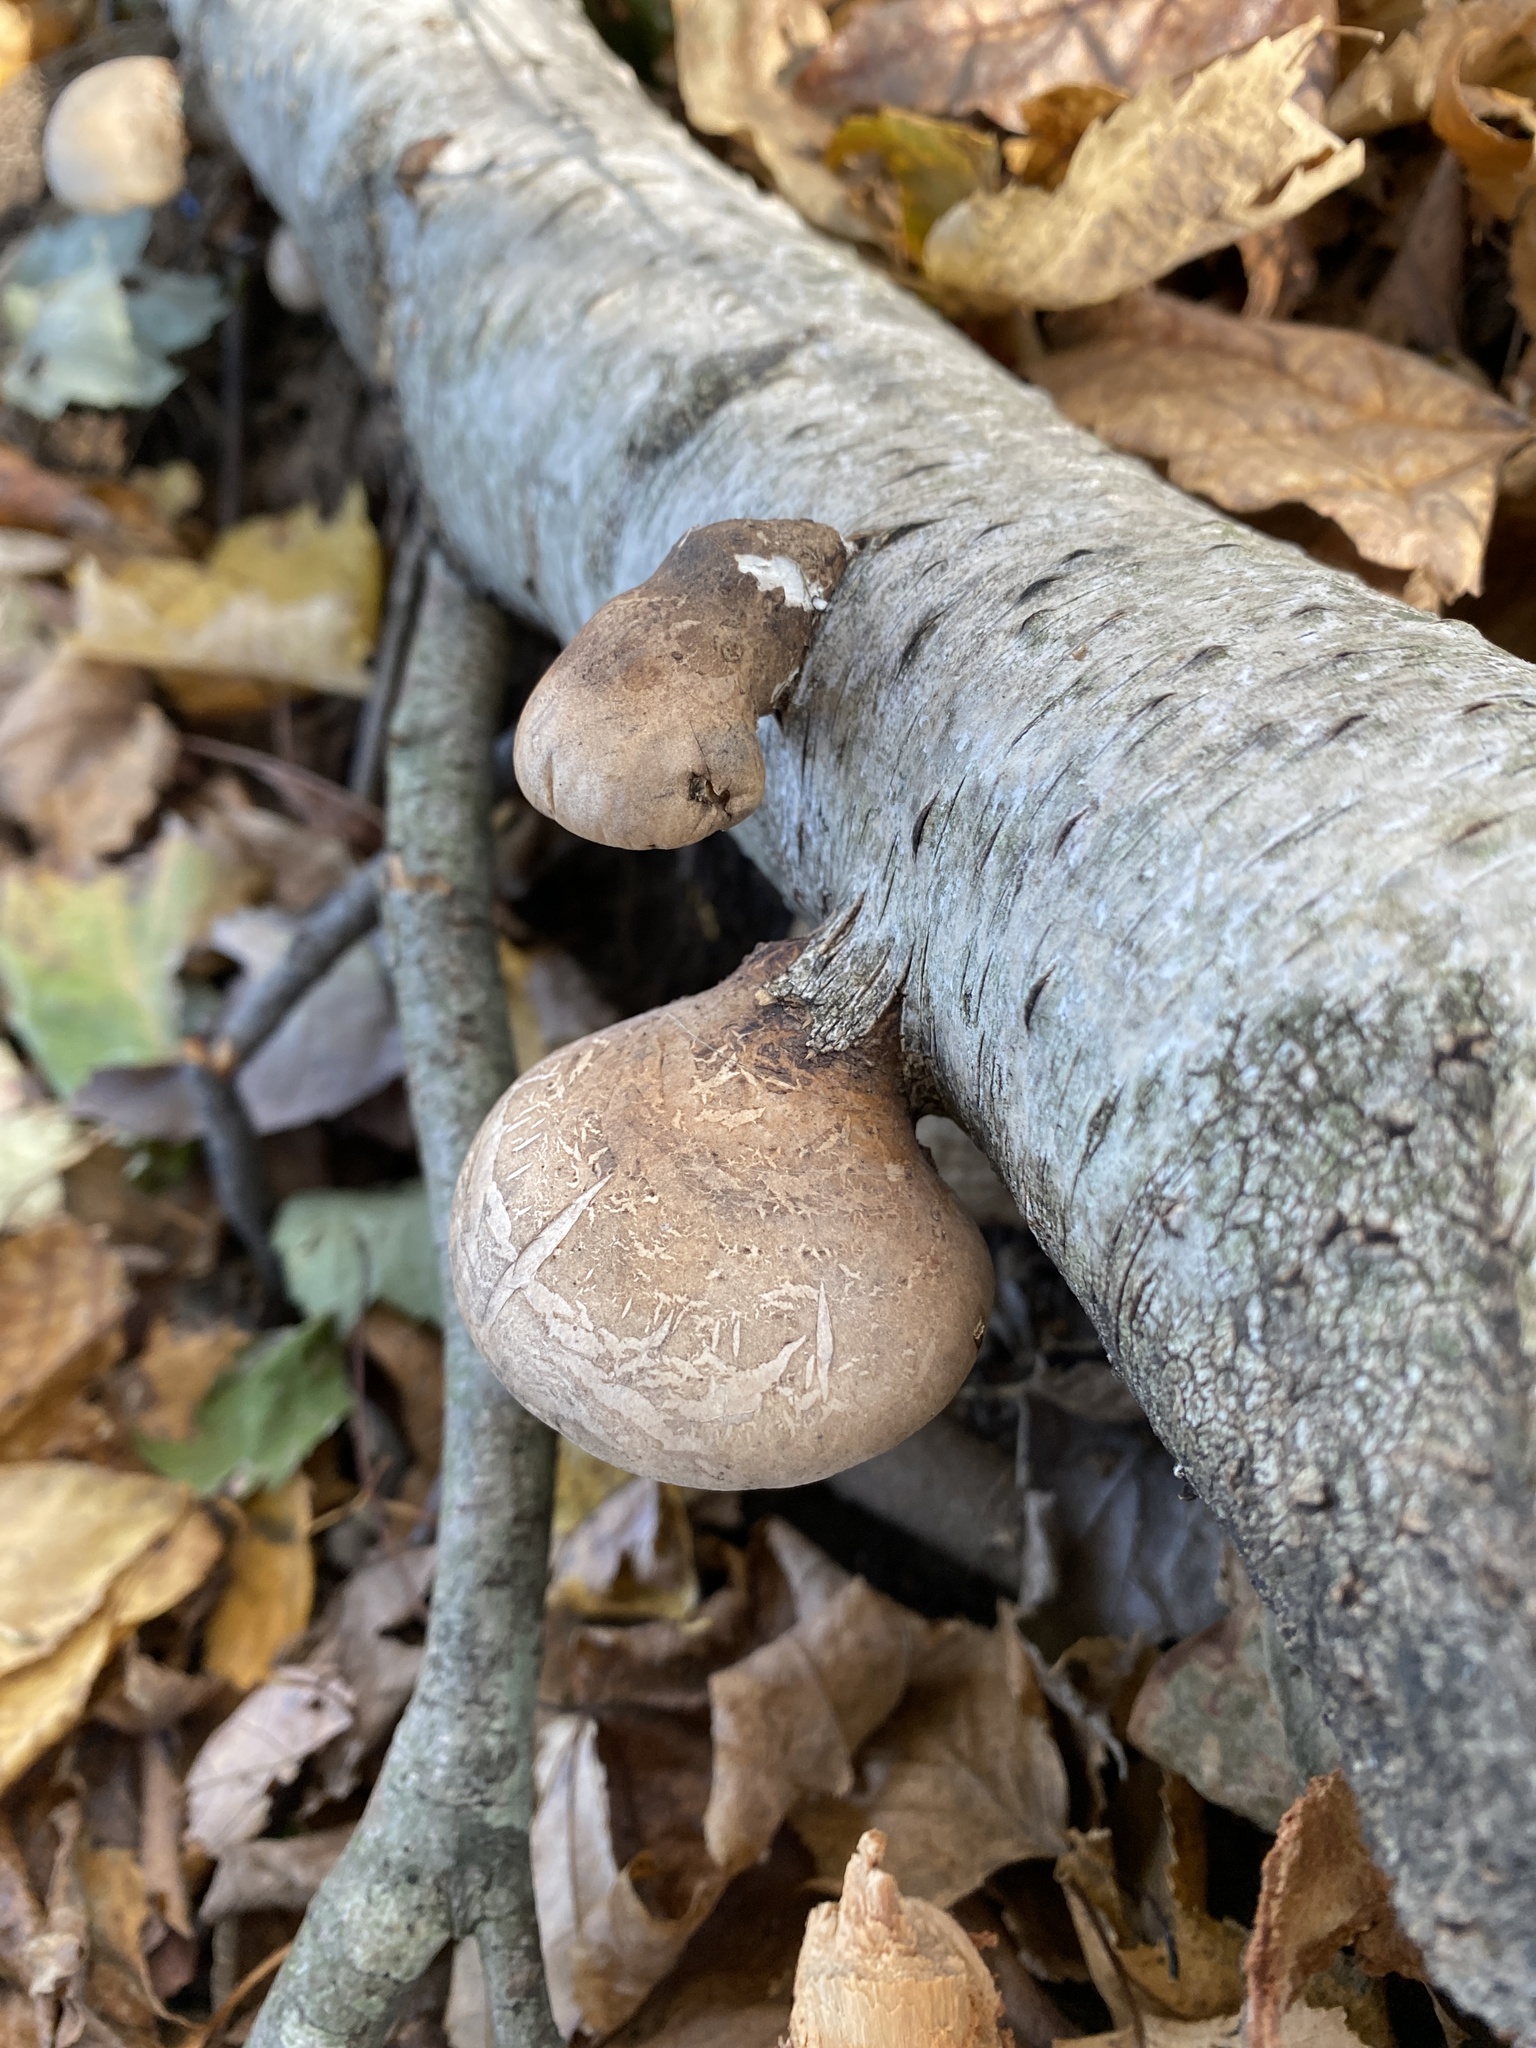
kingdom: Fungi
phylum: Basidiomycota
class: Agaricomycetes
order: Polyporales
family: Fomitopsidaceae
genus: Fomitopsis
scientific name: Fomitopsis betulina
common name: Birch polypore
